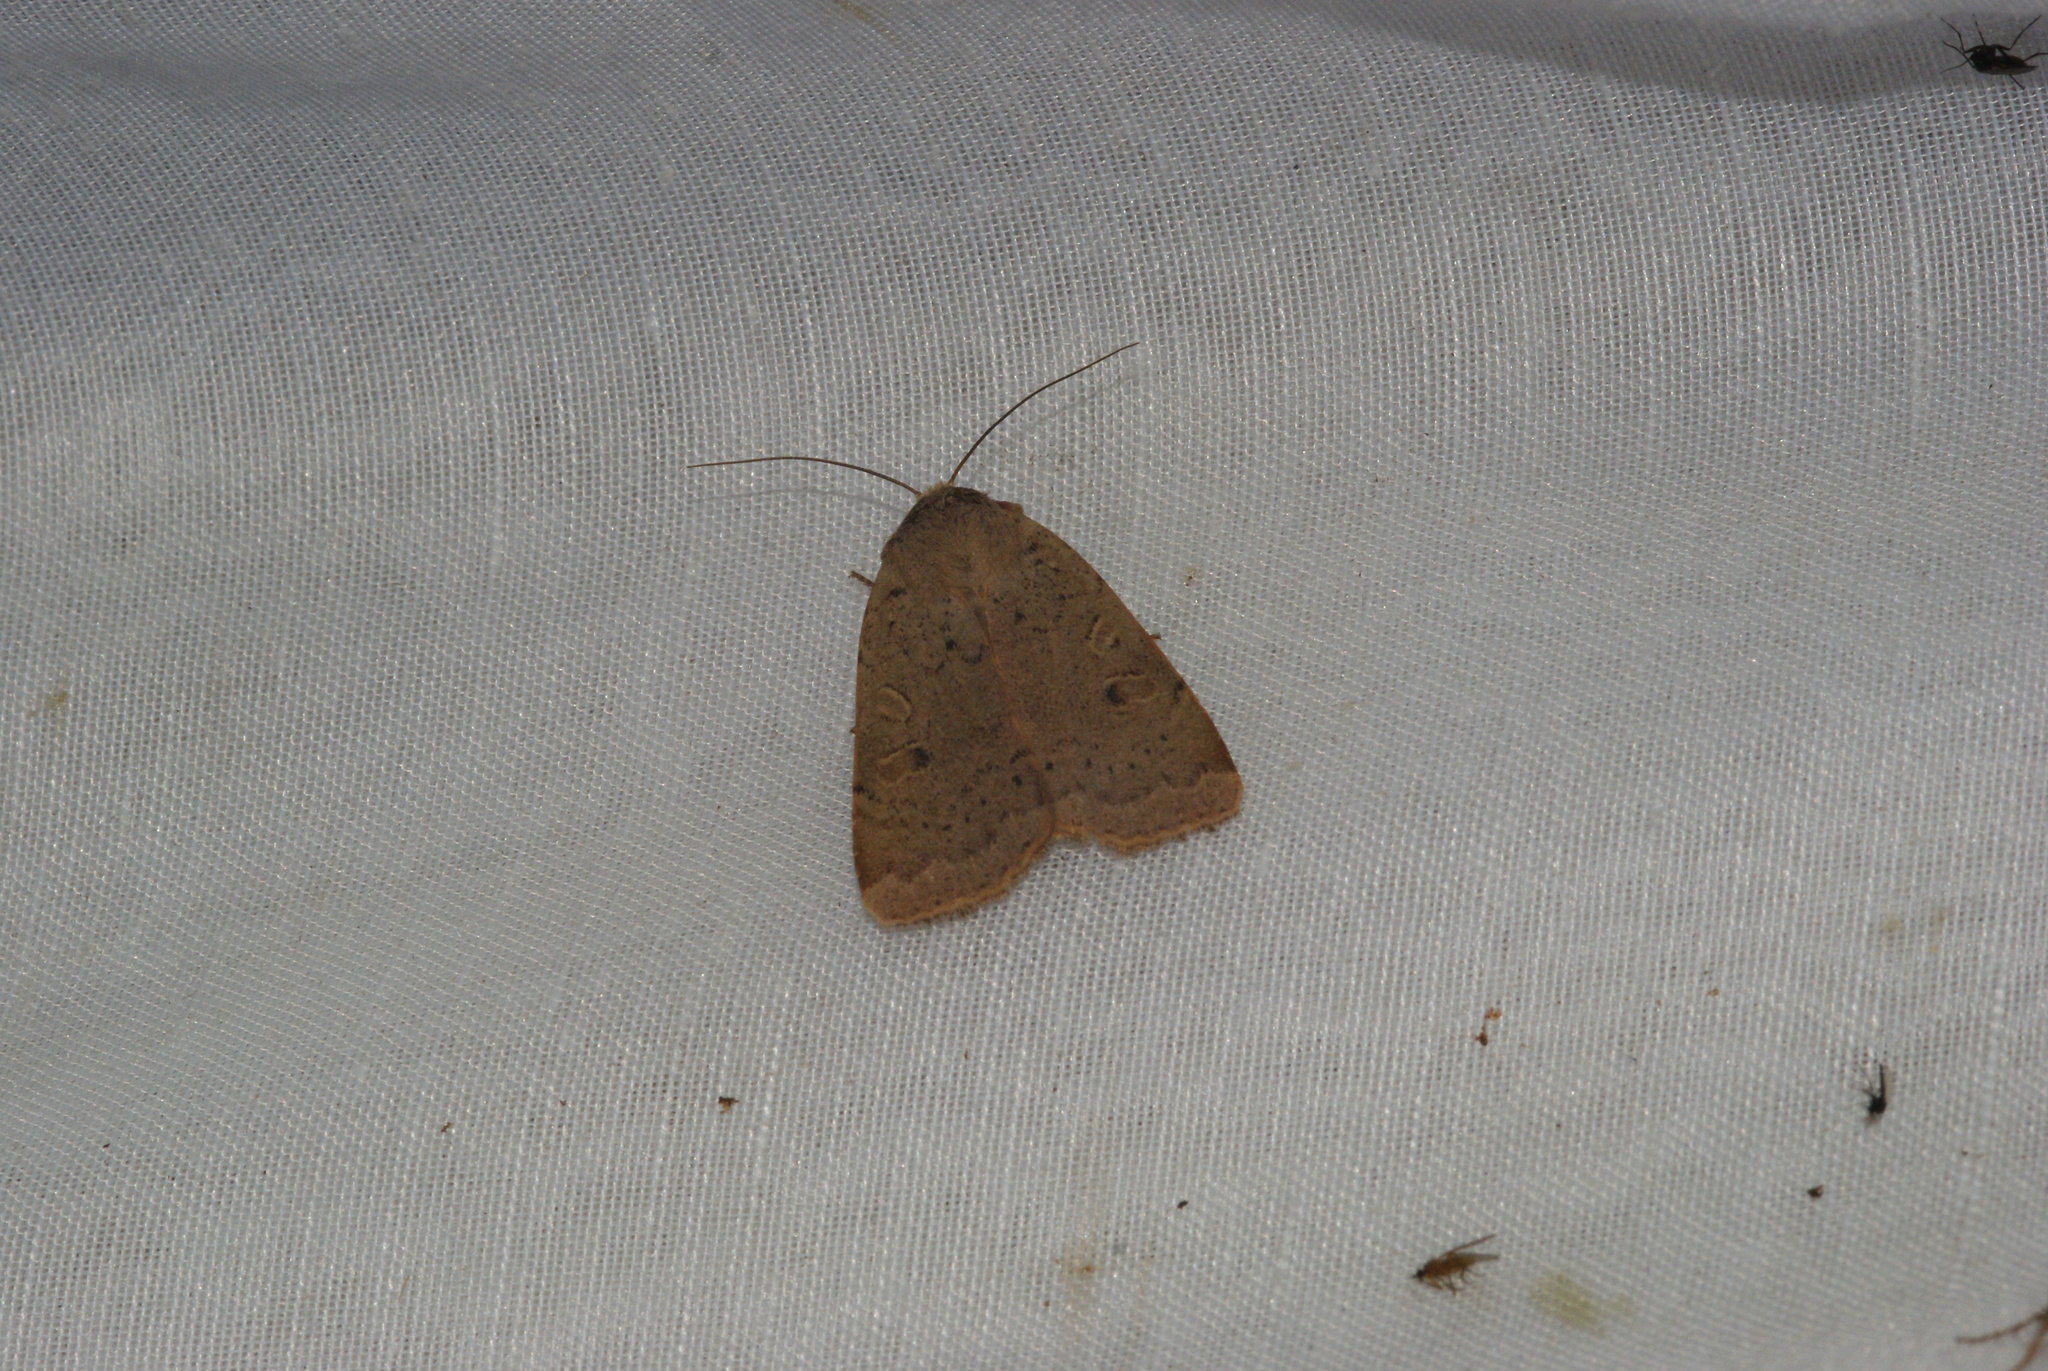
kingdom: Animalia
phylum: Arthropoda
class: Insecta
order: Lepidoptera
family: Noctuidae
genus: Noctua
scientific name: Noctua comes
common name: Lesser yellow underwing
